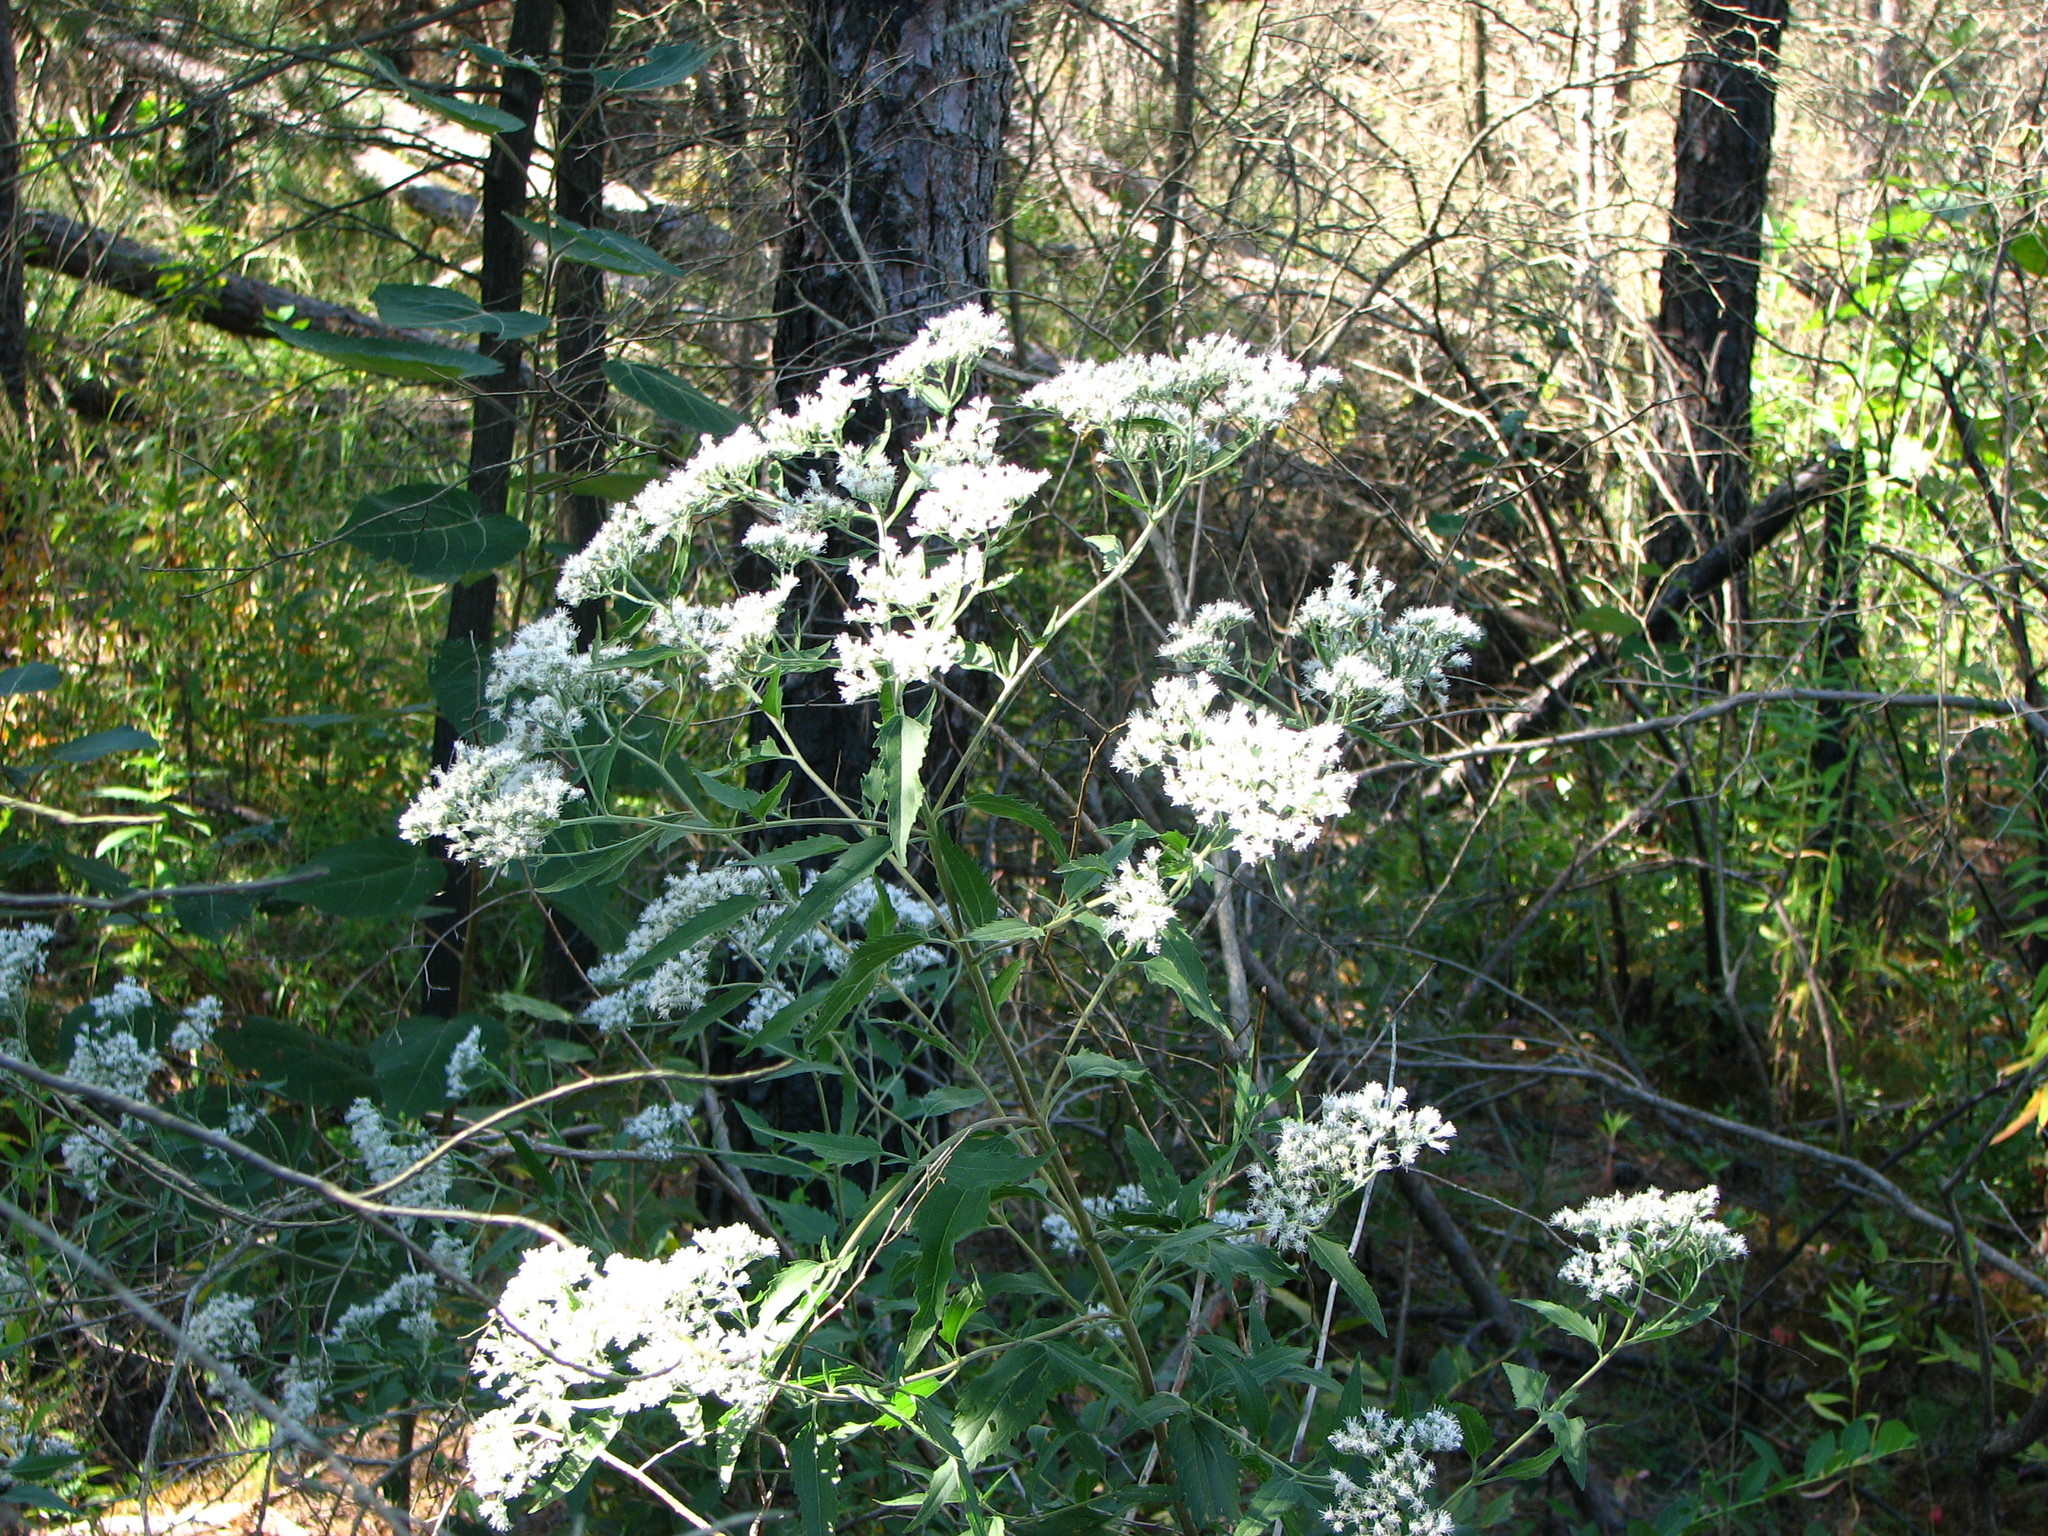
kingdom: Plantae
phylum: Tracheophyta
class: Magnoliopsida
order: Asterales
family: Asteraceae
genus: Eupatorium
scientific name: Eupatorium serotinum
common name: Late boneset
